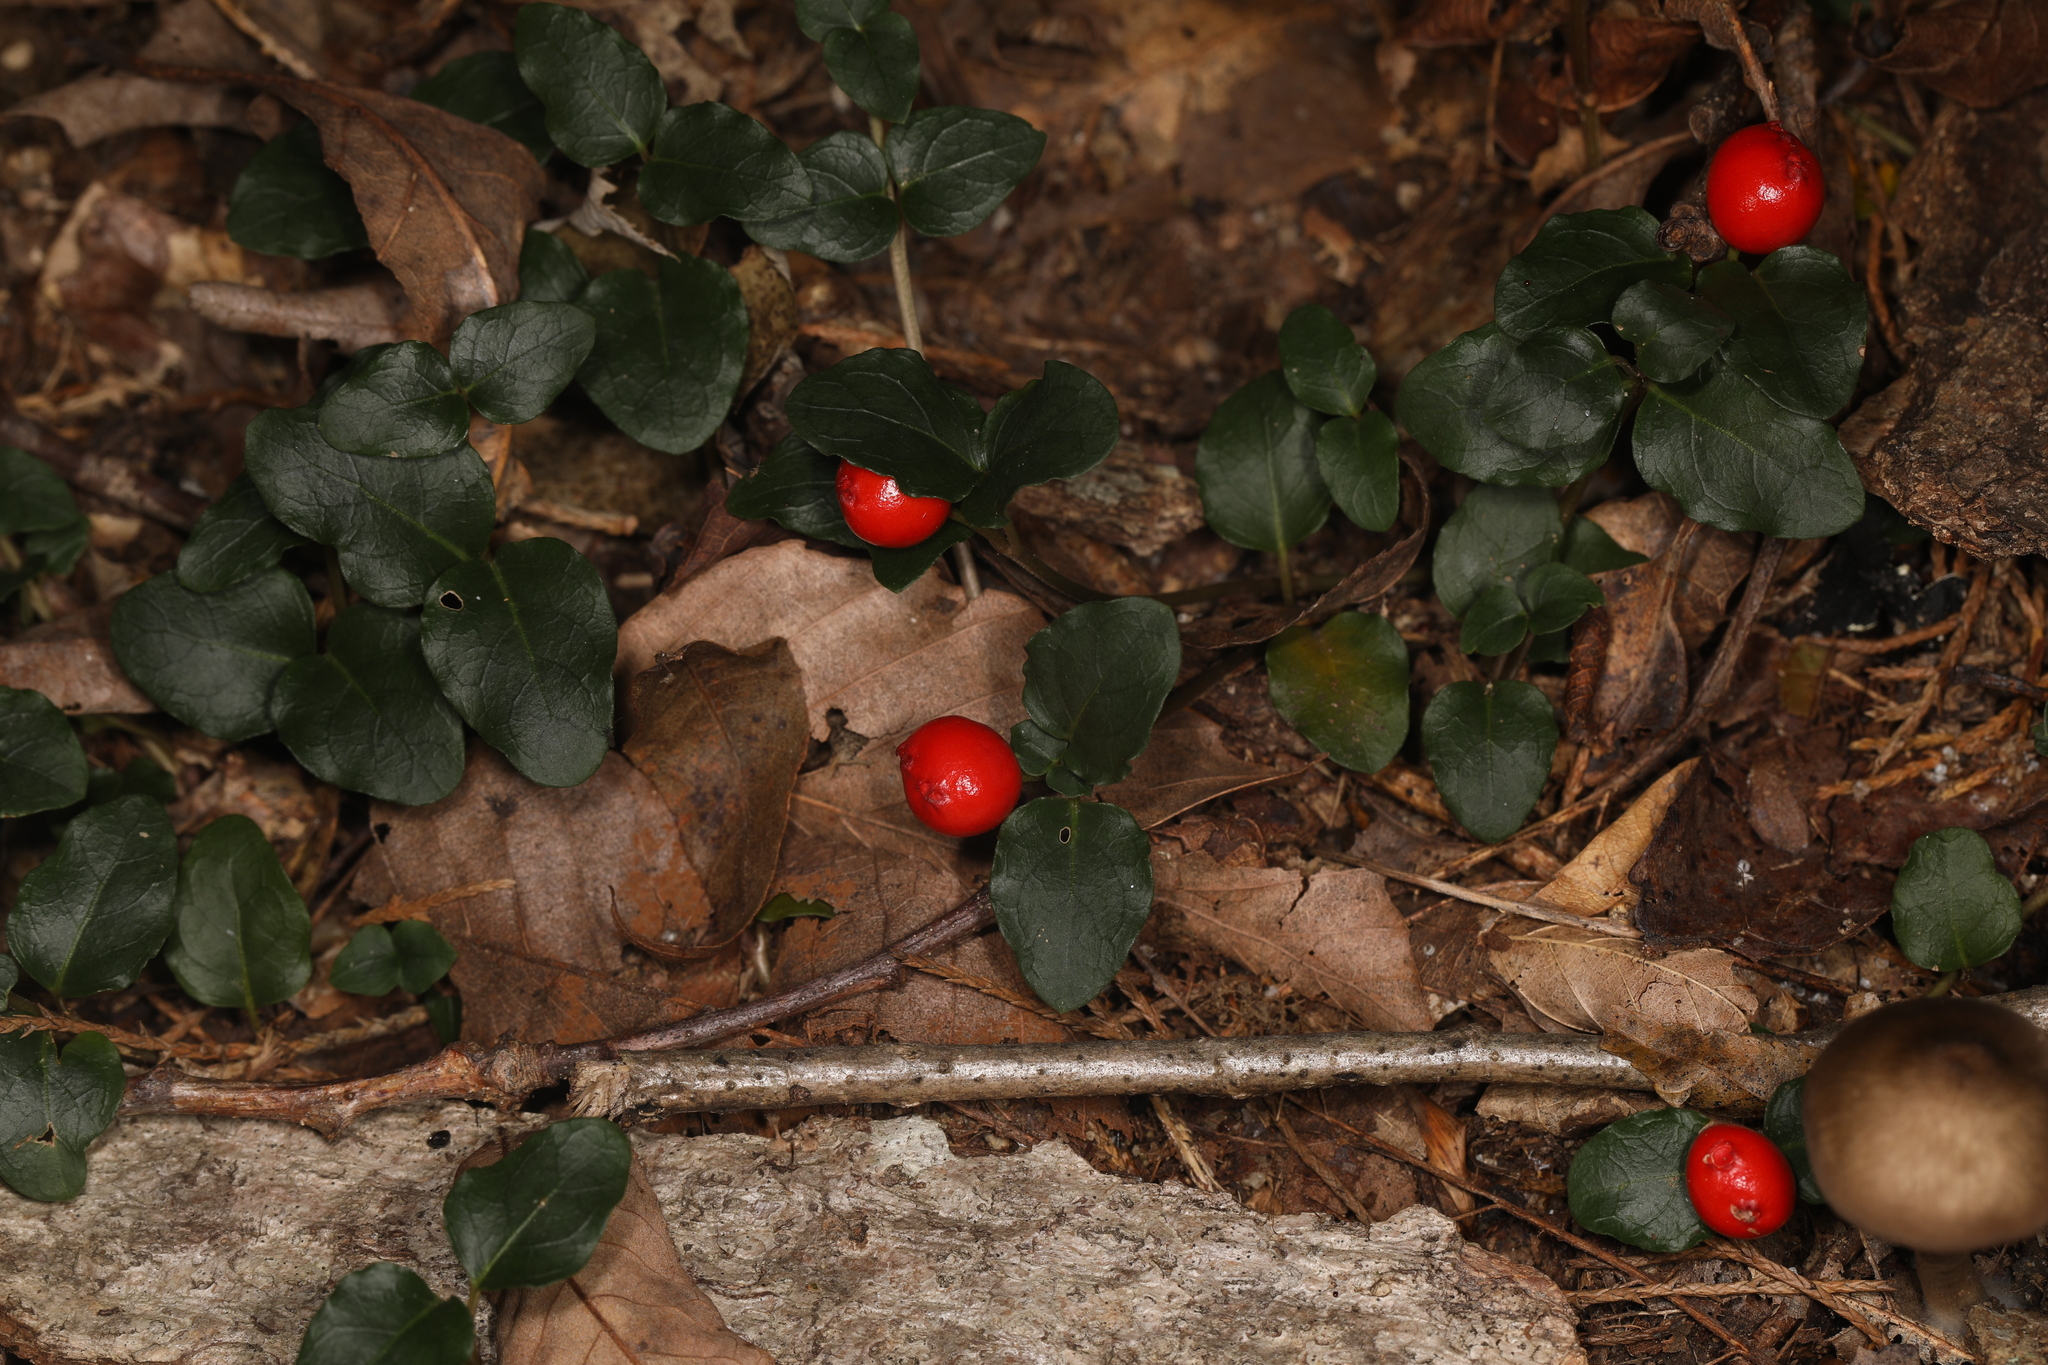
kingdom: Plantae
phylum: Tracheophyta
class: Magnoliopsida
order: Gentianales
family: Rubiaceae
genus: Mitchella
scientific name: Mitchella repens
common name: Partridge-berry
